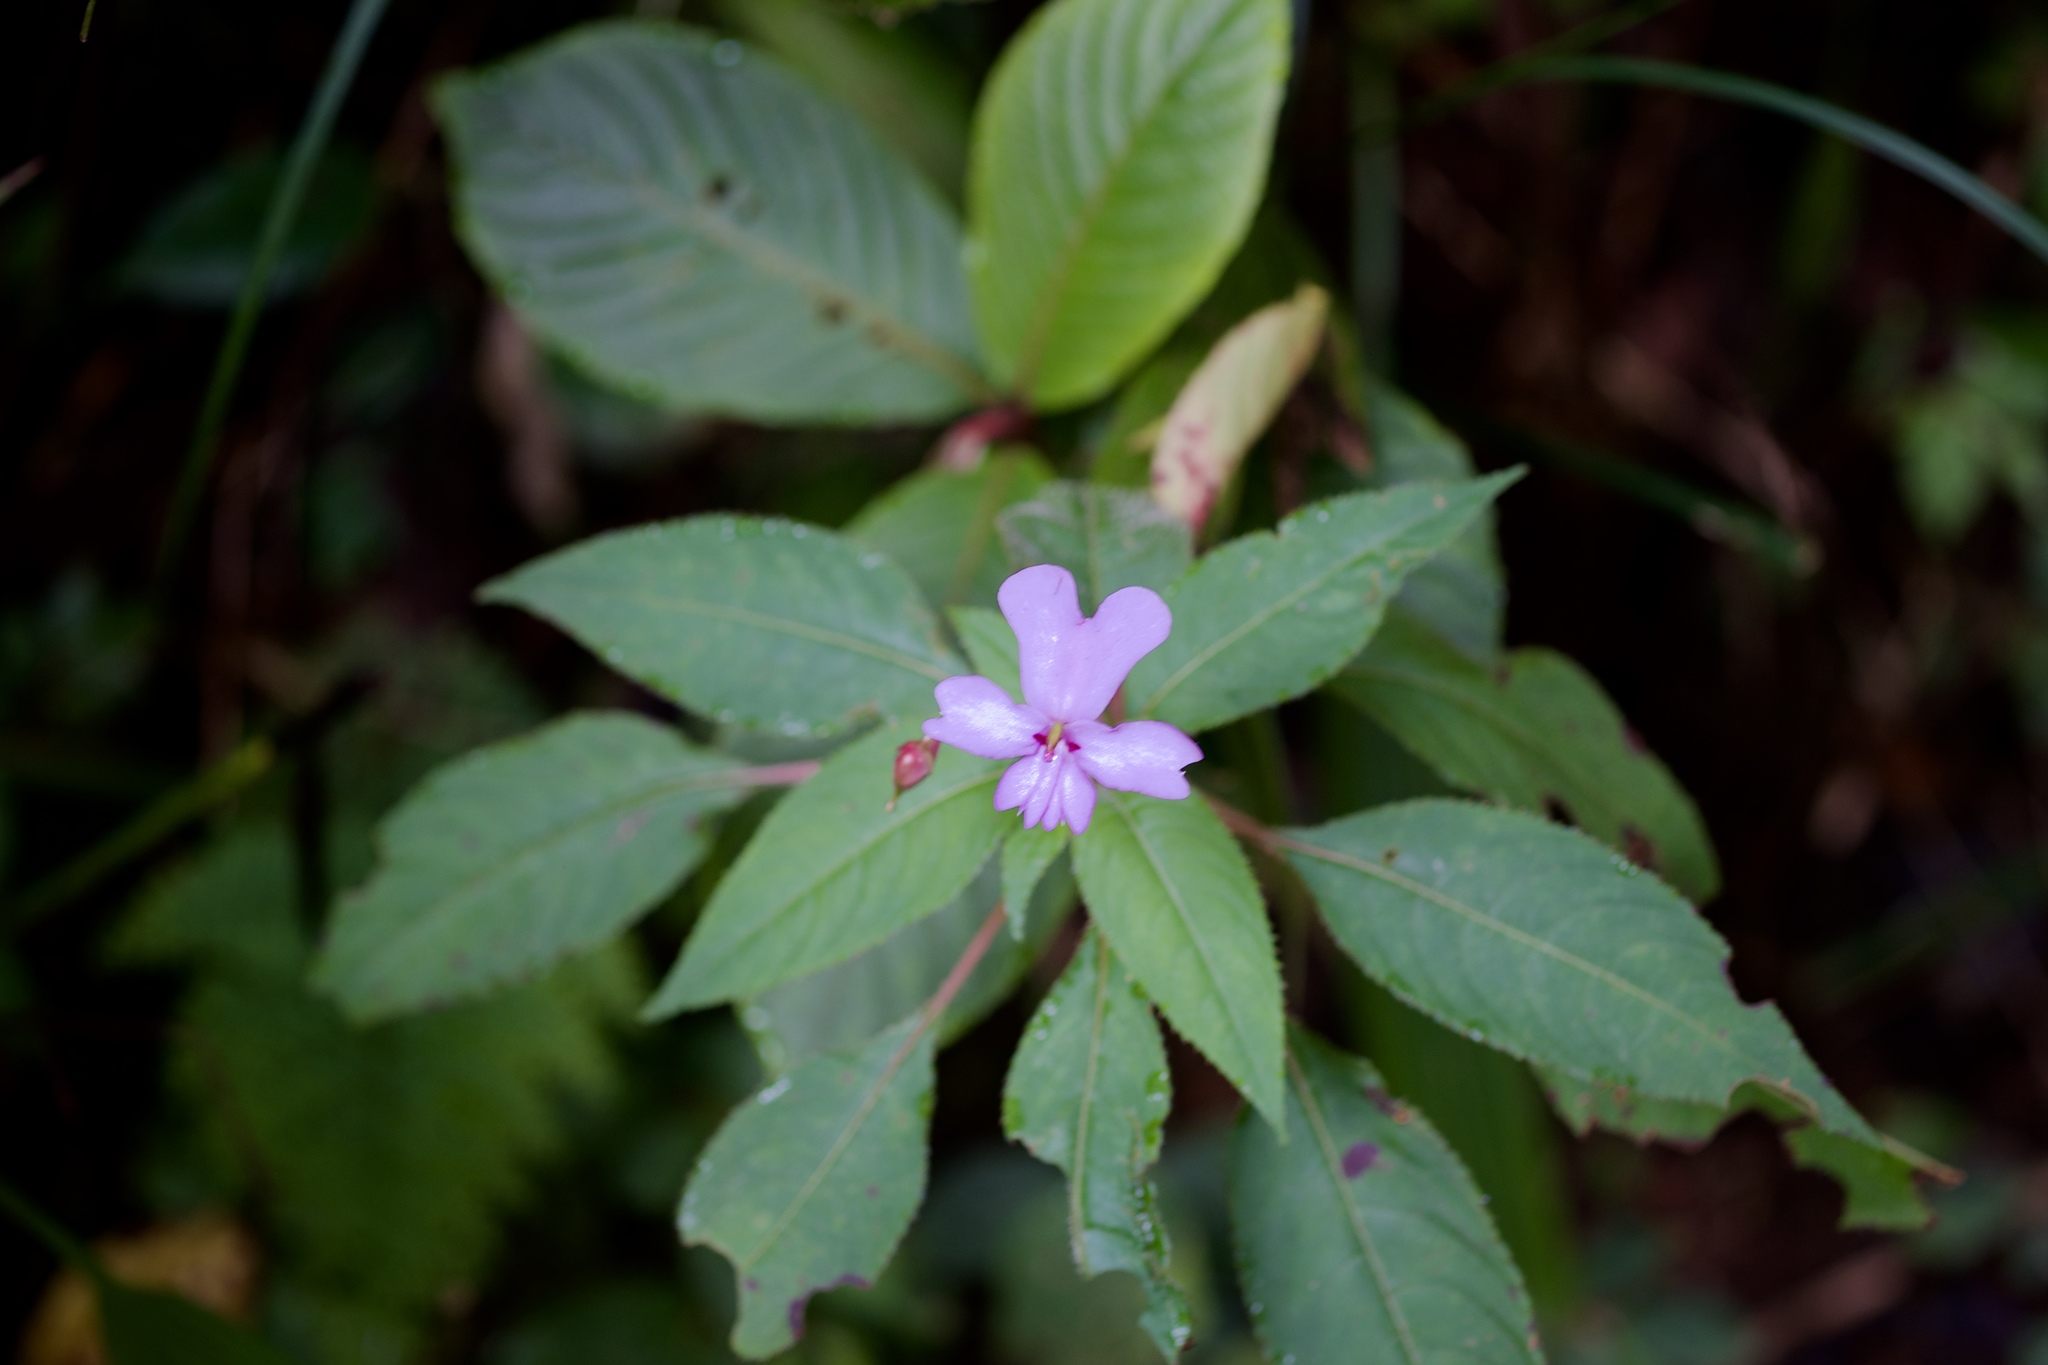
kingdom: Plantae
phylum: Tracheophyta
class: Magnoliopsida
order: Ericales
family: Balsaminaceae
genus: Impatiens
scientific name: Impatiens kinabaluensis
